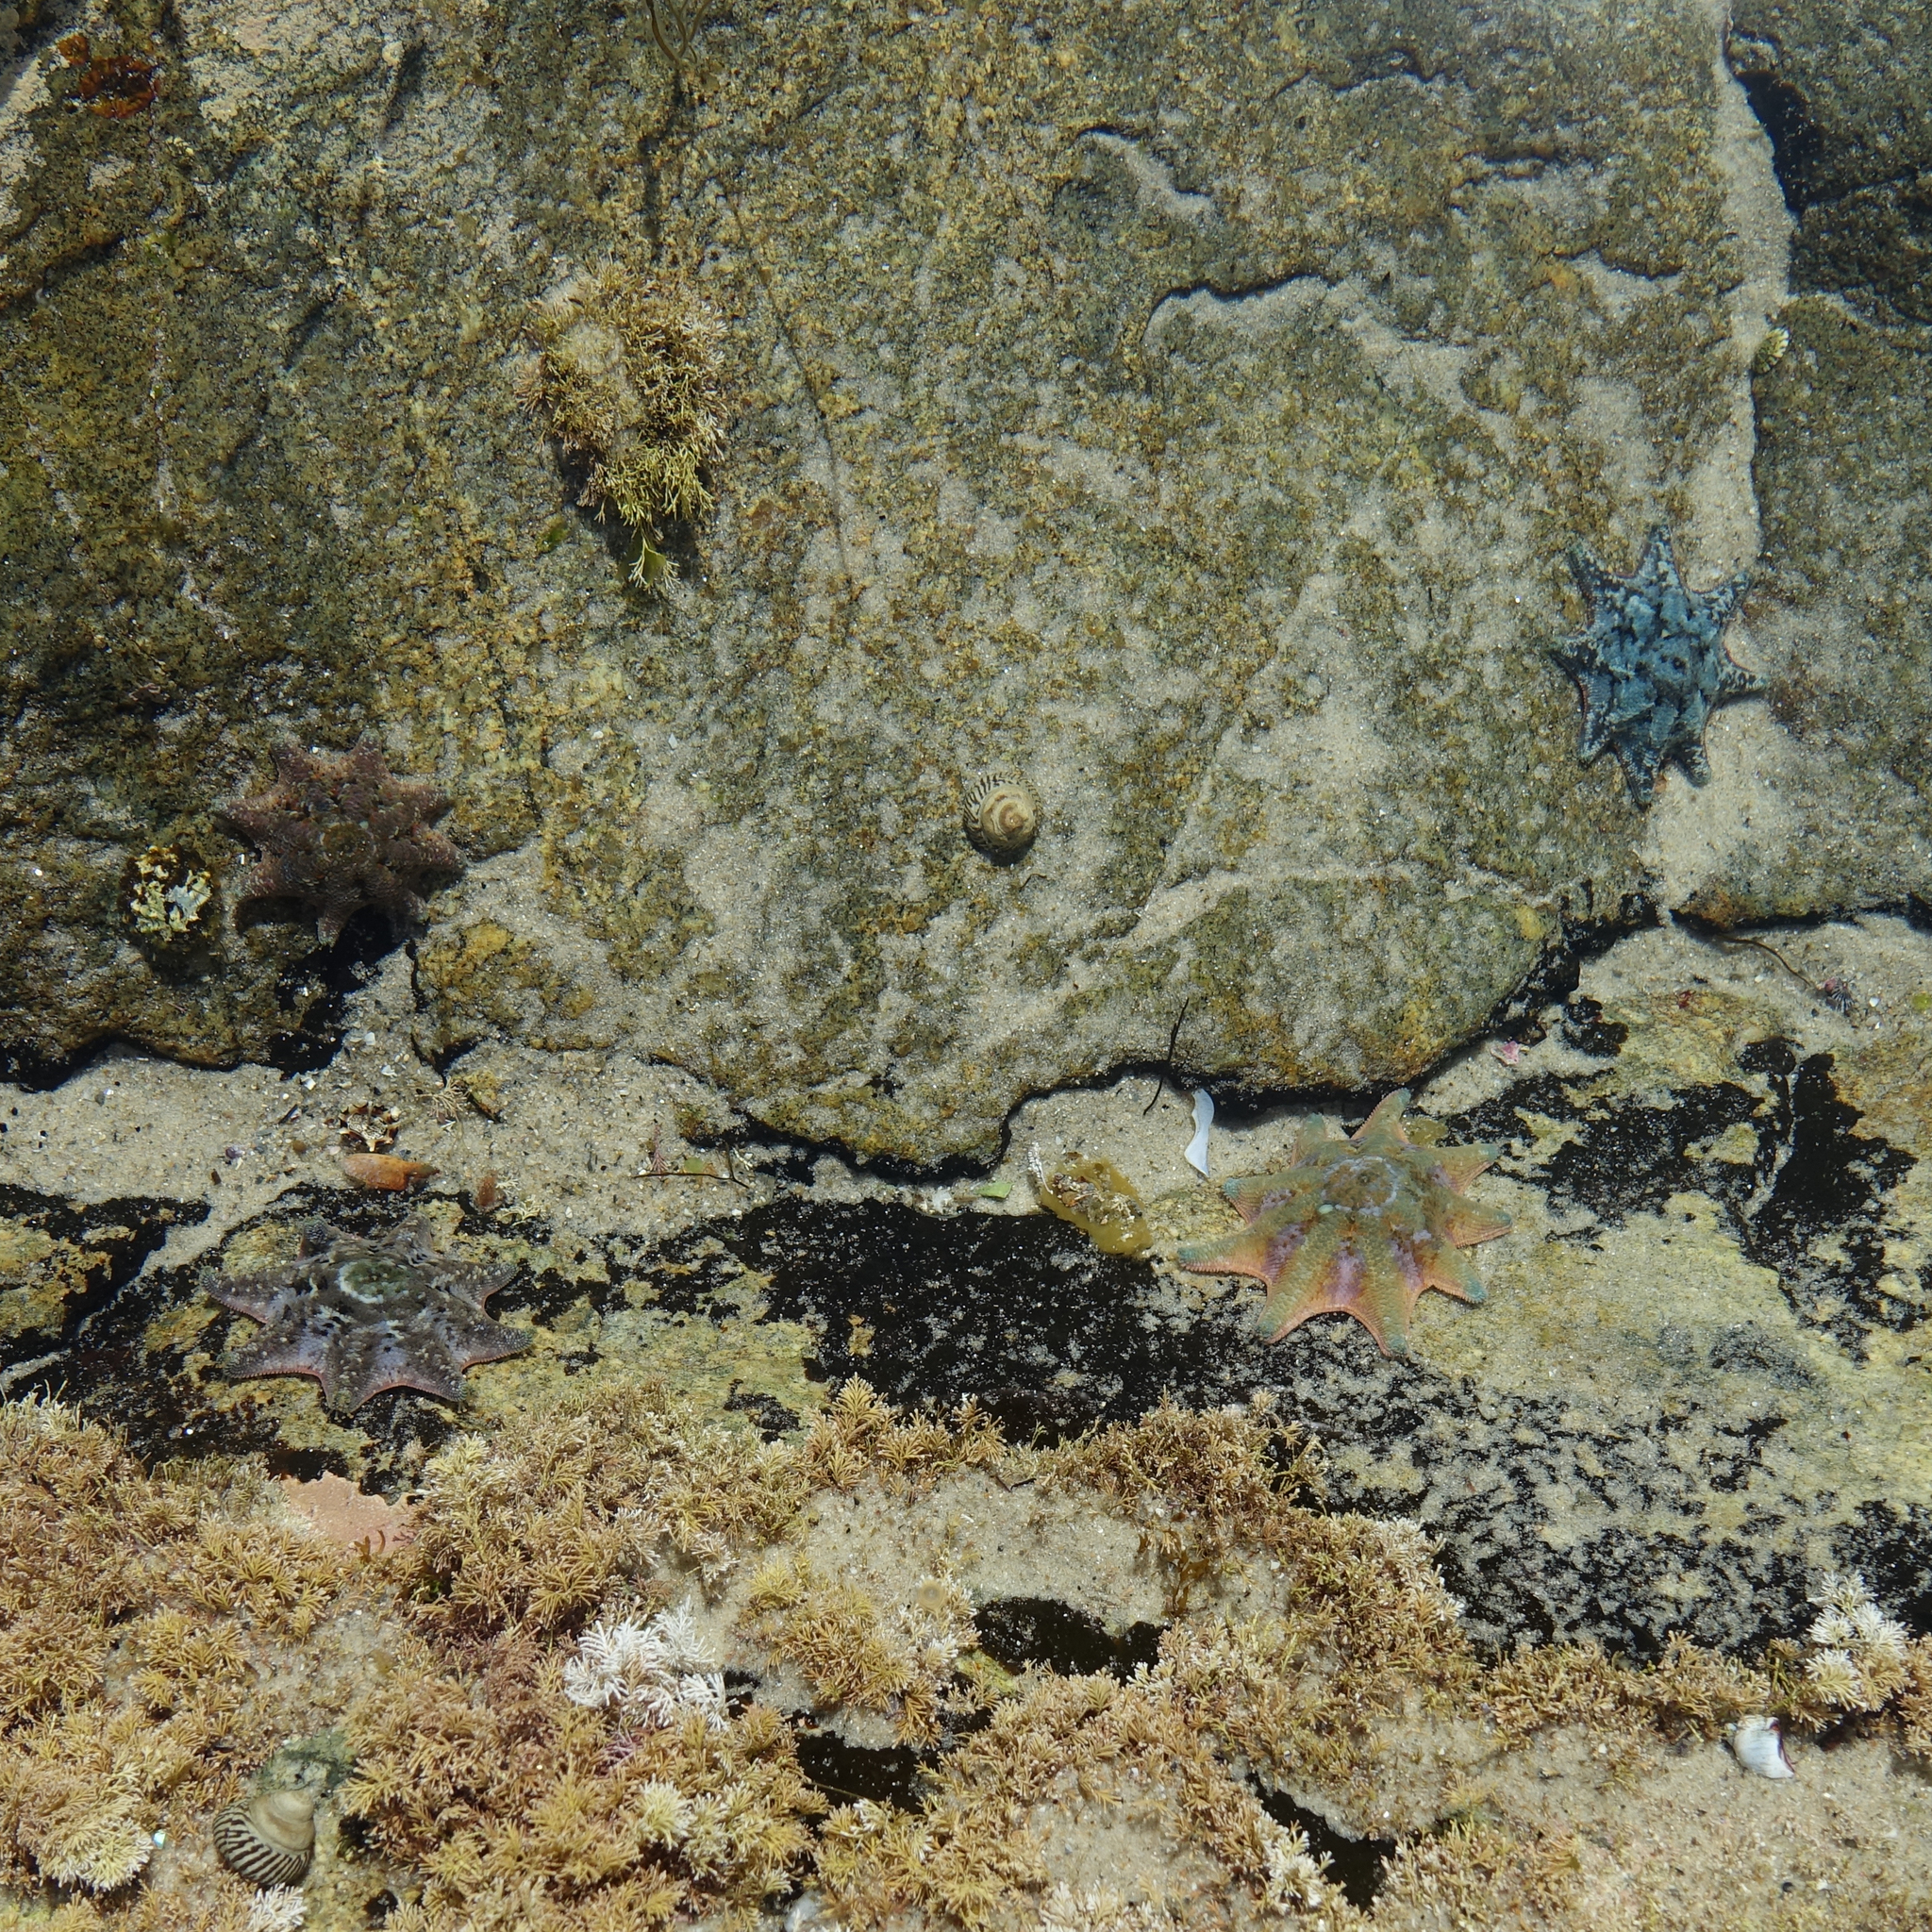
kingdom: Animalia
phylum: Echinodermata
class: Asteroidea
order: Valvatida
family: Asterinidae
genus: Meridiastra
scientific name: Meridiastra calcar
